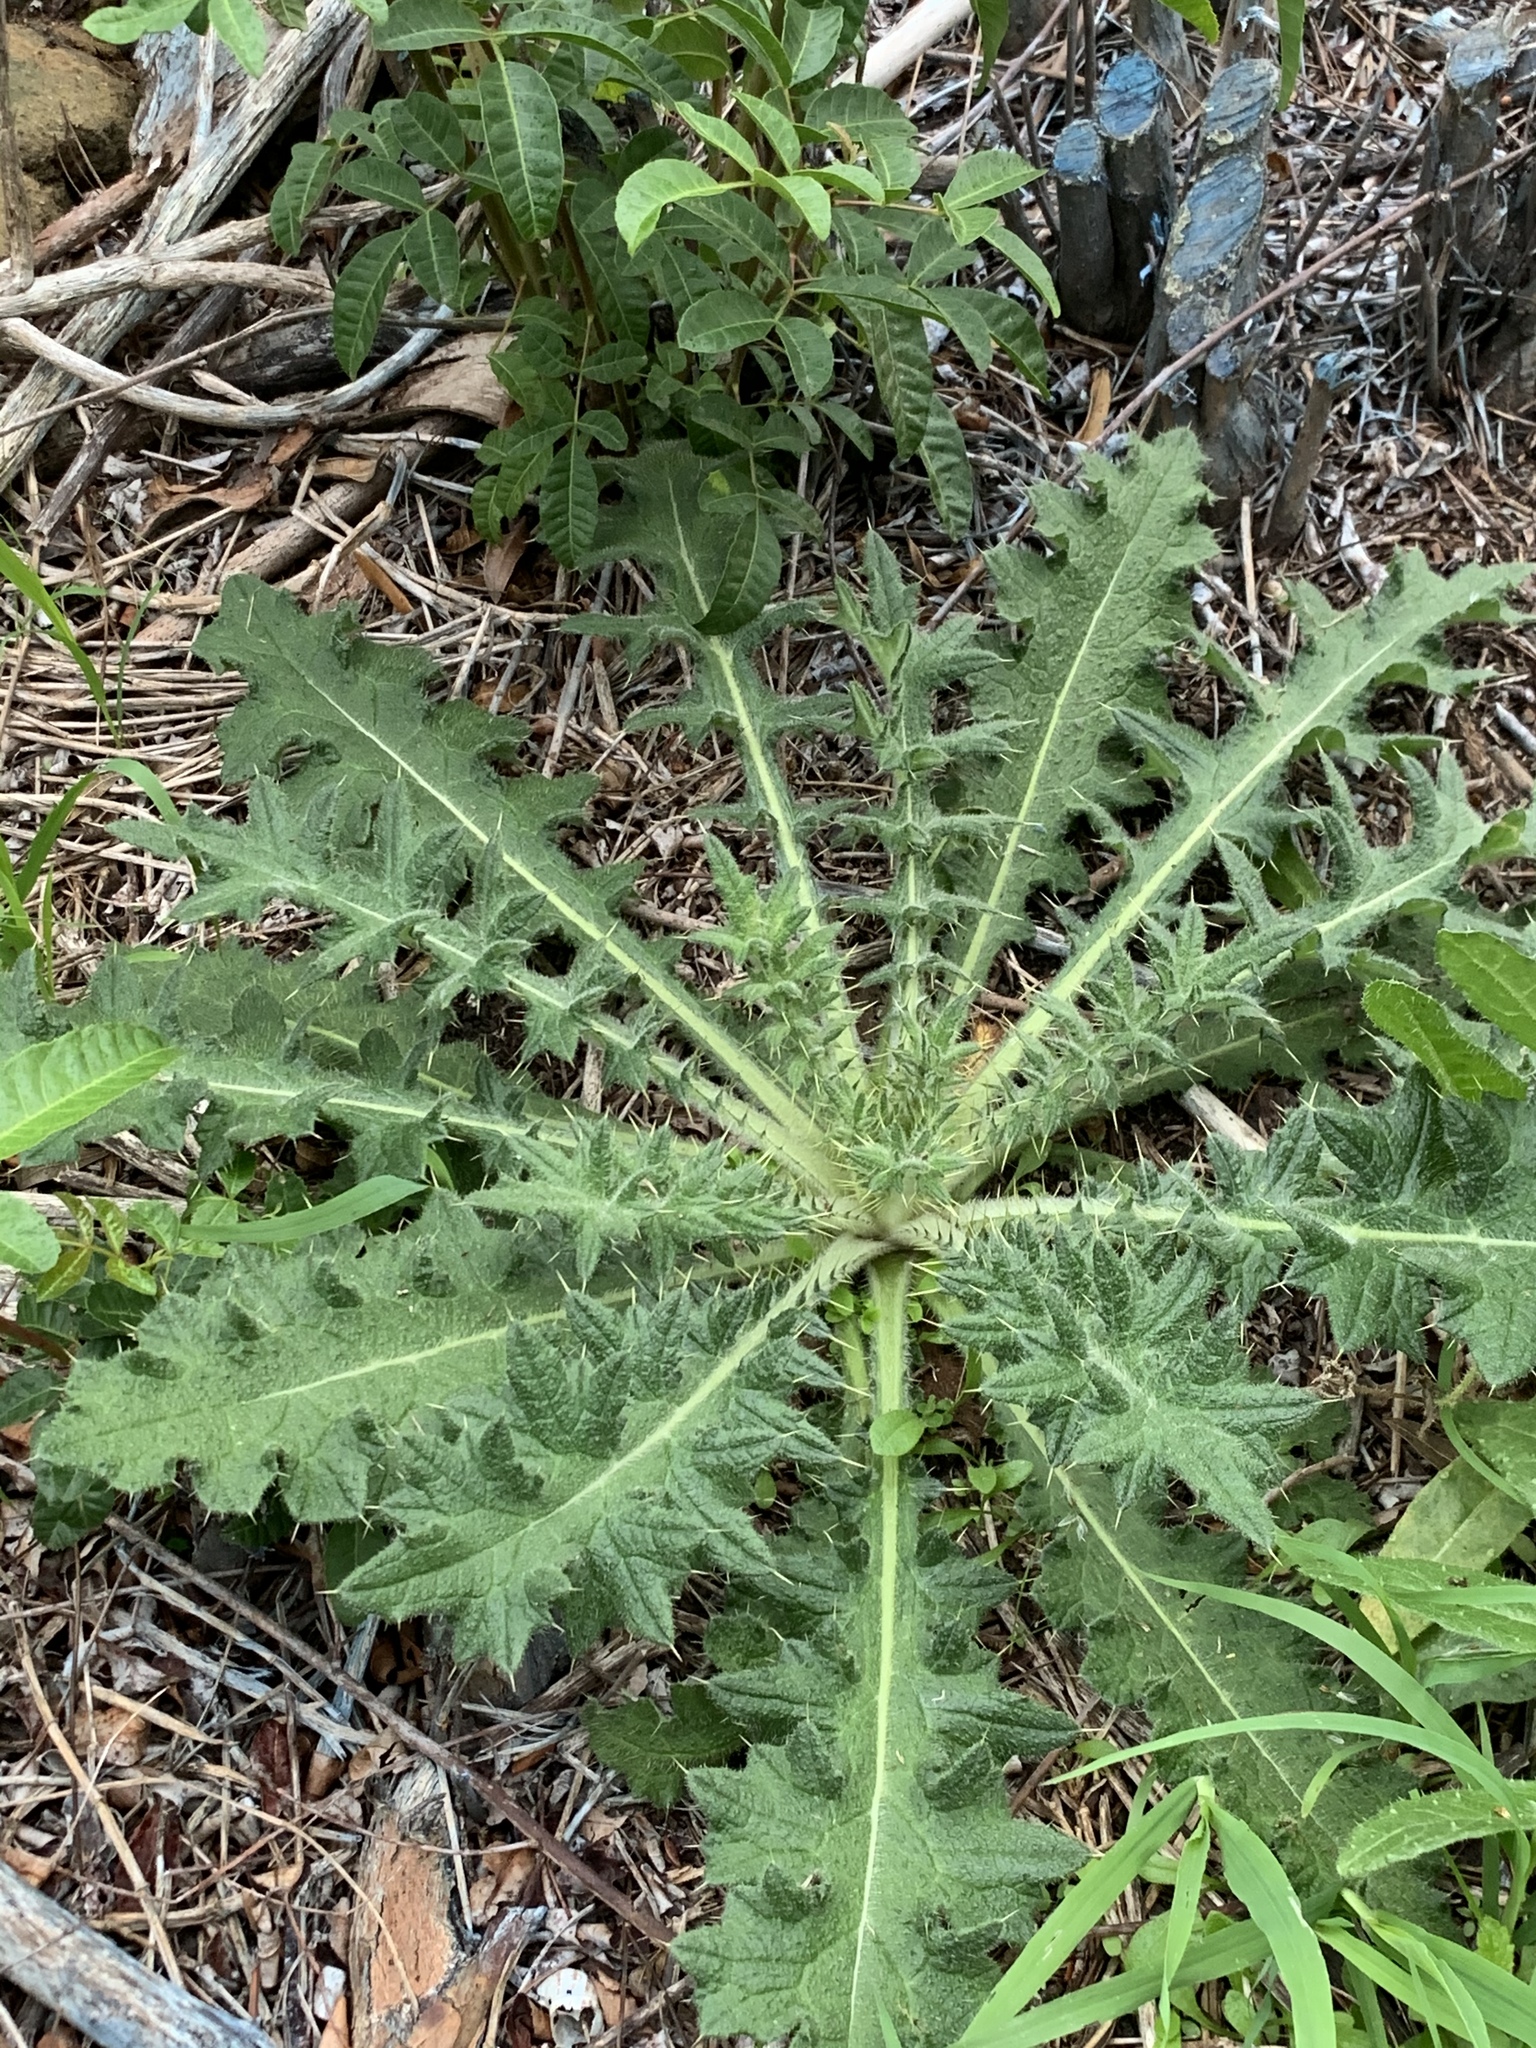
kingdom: Plantae
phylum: Tracheophyta
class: Magnoliopsida
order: Asterales
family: Asteraceae
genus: Cirsium
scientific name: Cirsium vulgare
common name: Bull thistle
